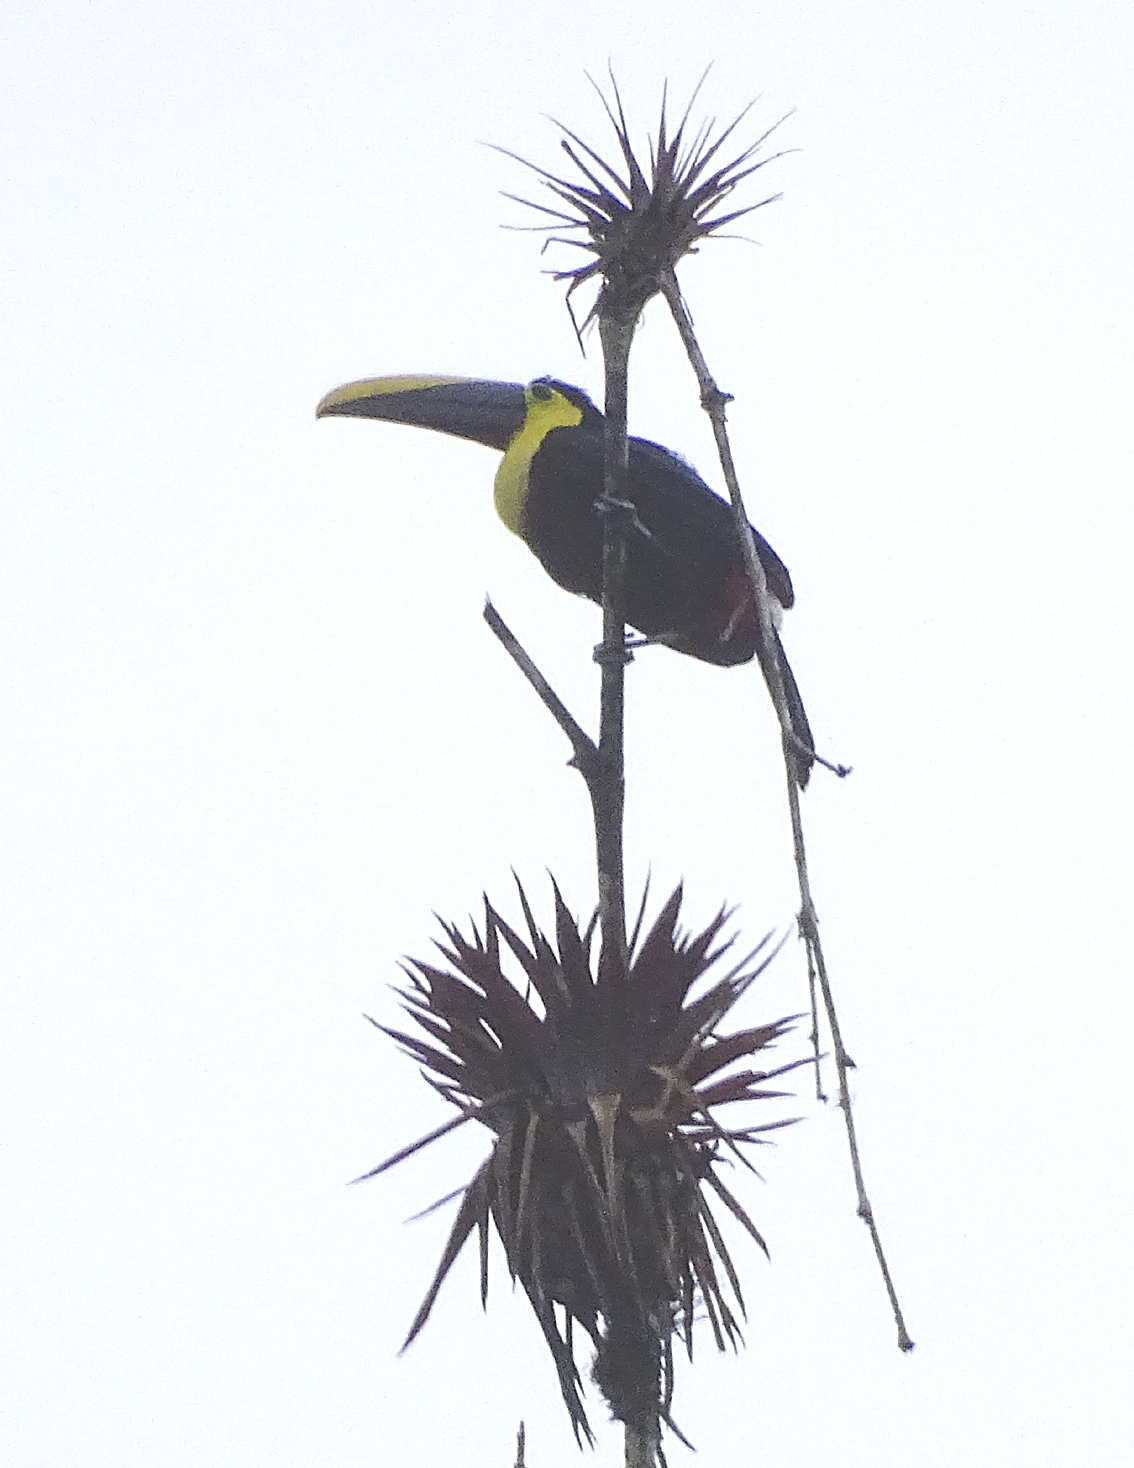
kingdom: Animalia
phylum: Chordata
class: Aves
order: Piciformes
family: Ramphastidae
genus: Ramphastos
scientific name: Ramphastos brevis
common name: Choco toucan
